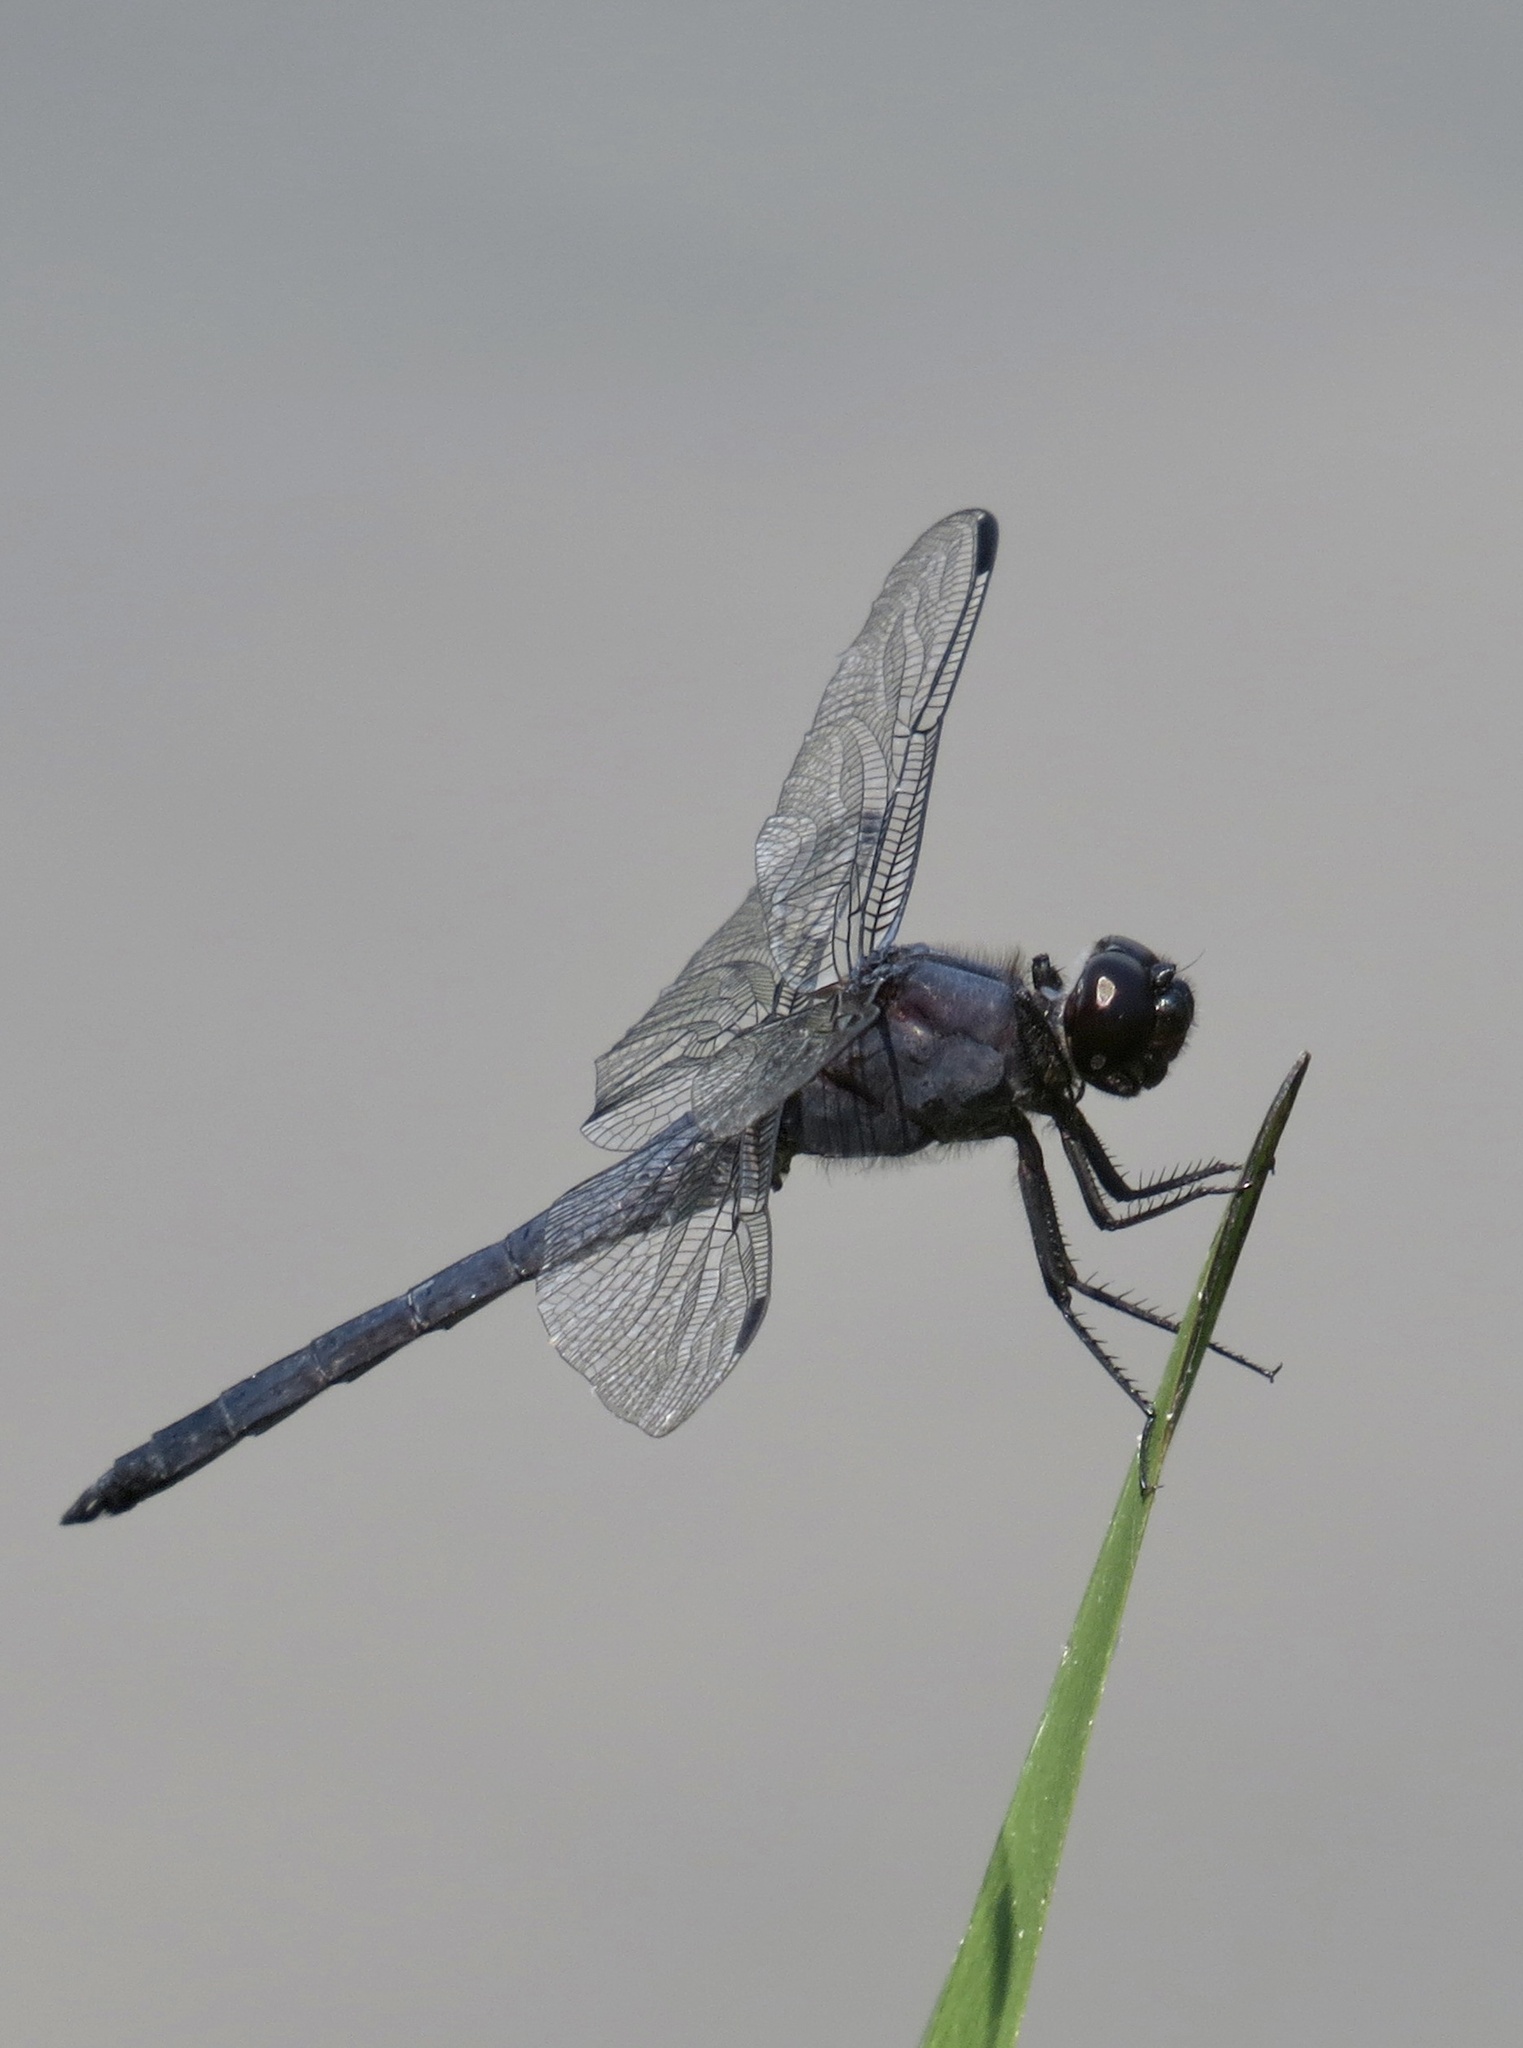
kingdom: Animalia
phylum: Arthropoda
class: Insecta
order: Odonata
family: Libellulidae
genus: Libellula
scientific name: Libellula incesta
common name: Slaty skimmer
